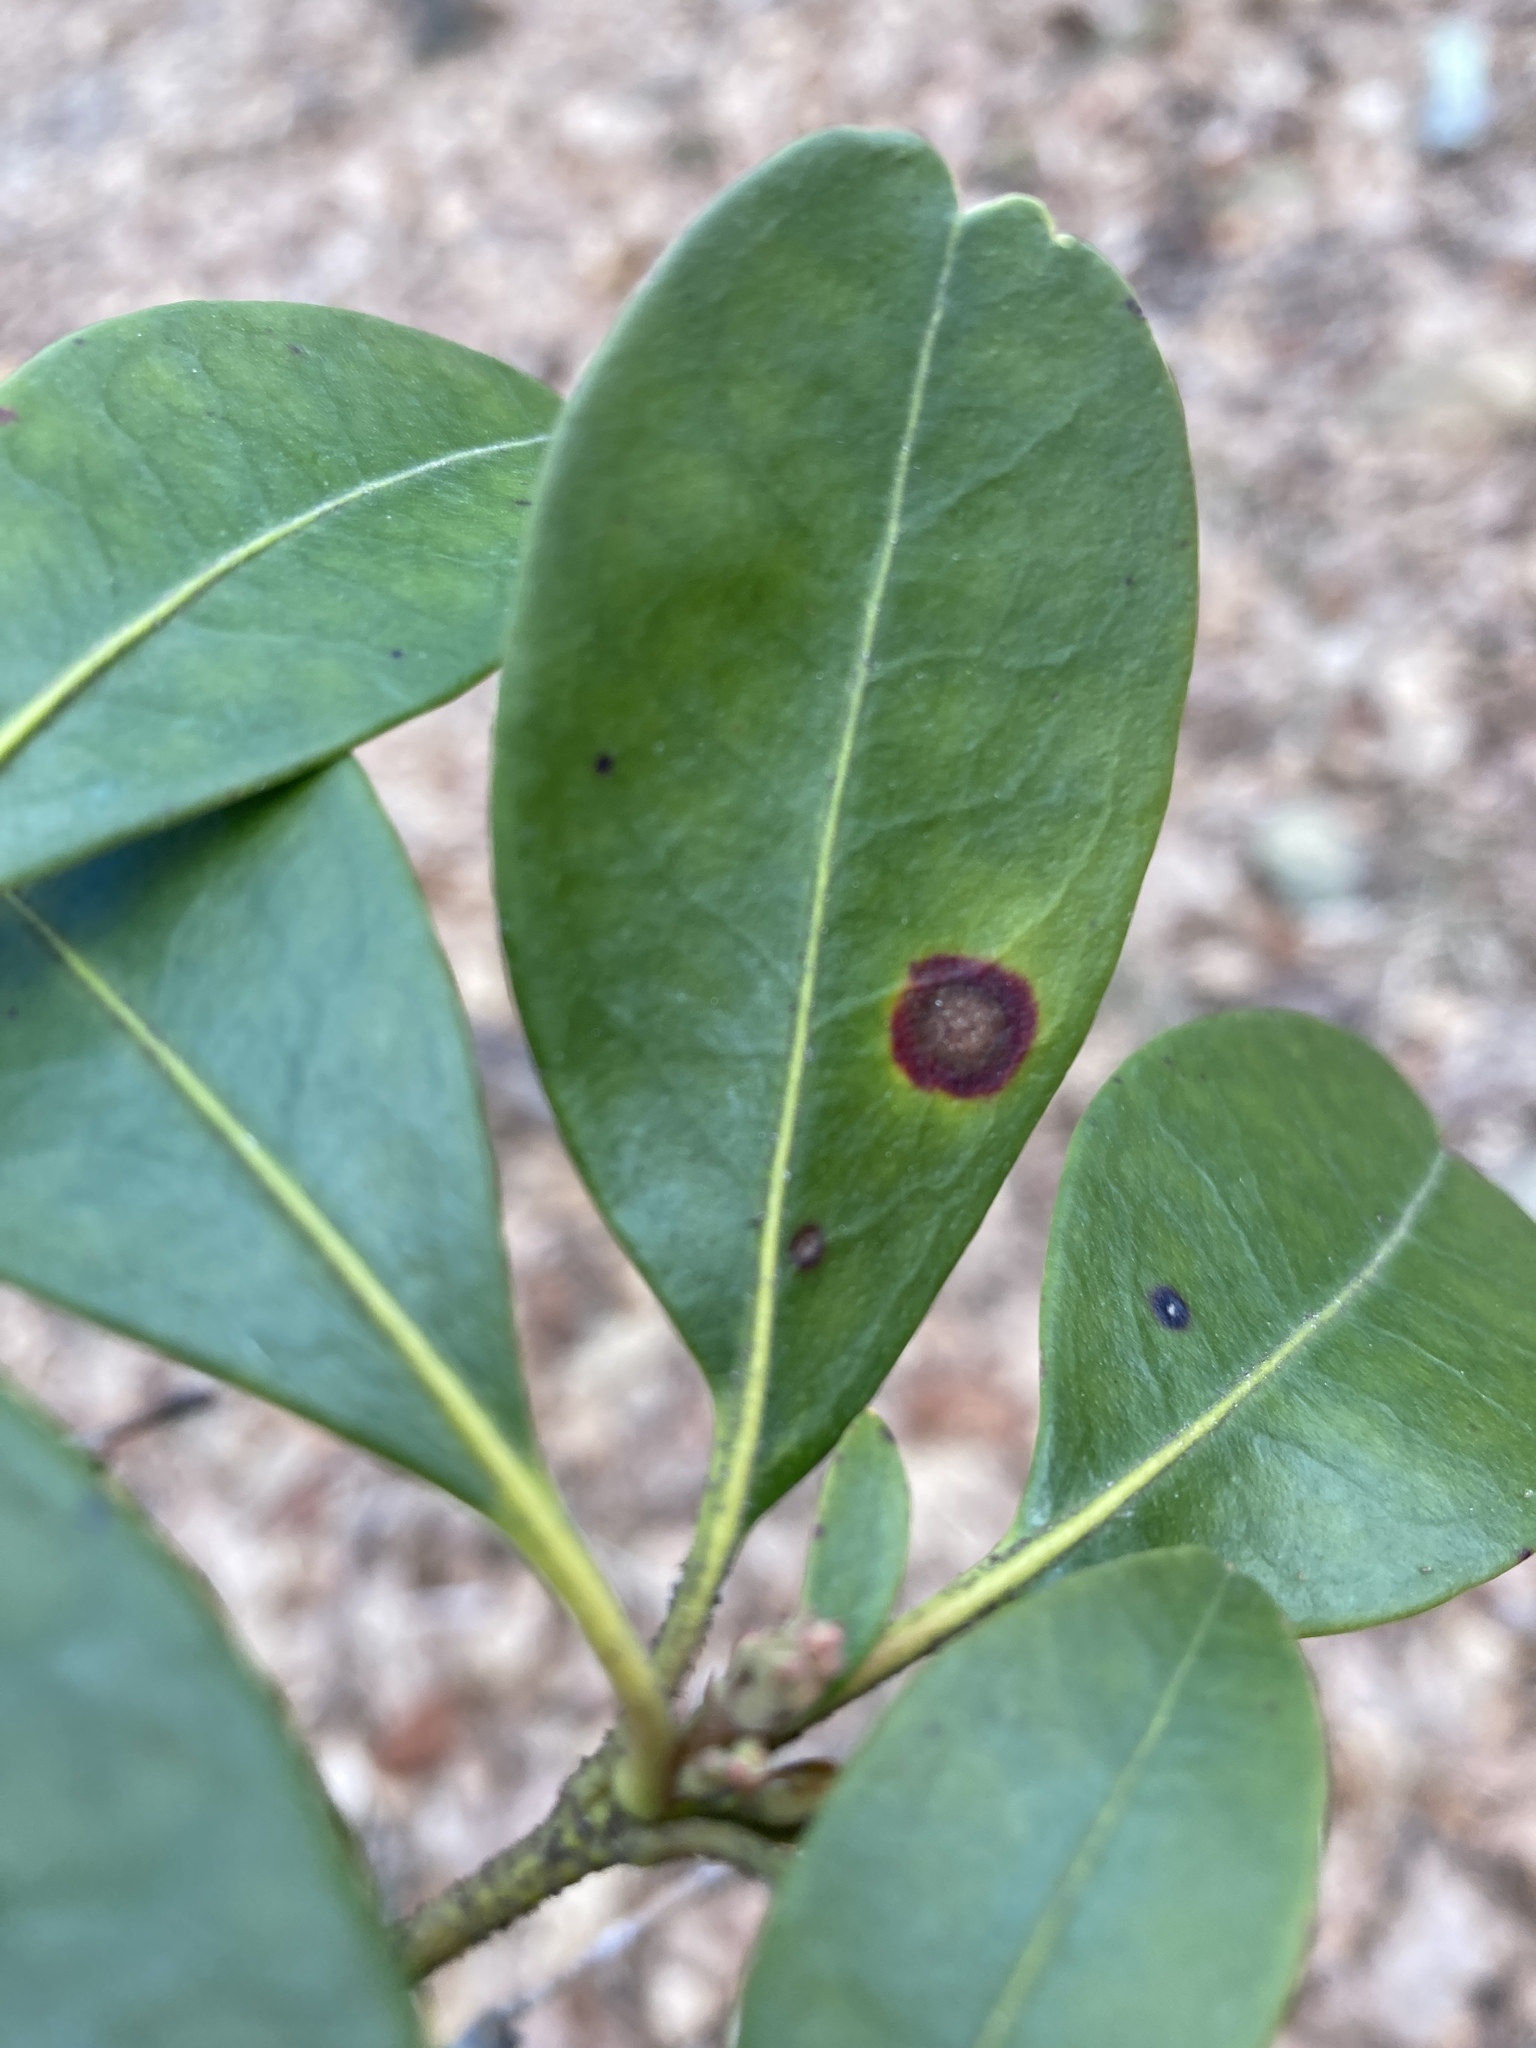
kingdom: Fungi
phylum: Ascomycota
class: Dothideomycetes
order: Mycosphaerellales
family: Mycosphaerellaceae
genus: Mycosphaerella
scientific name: Mycosphaerella colorata
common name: Mountain laurel leaf spot
